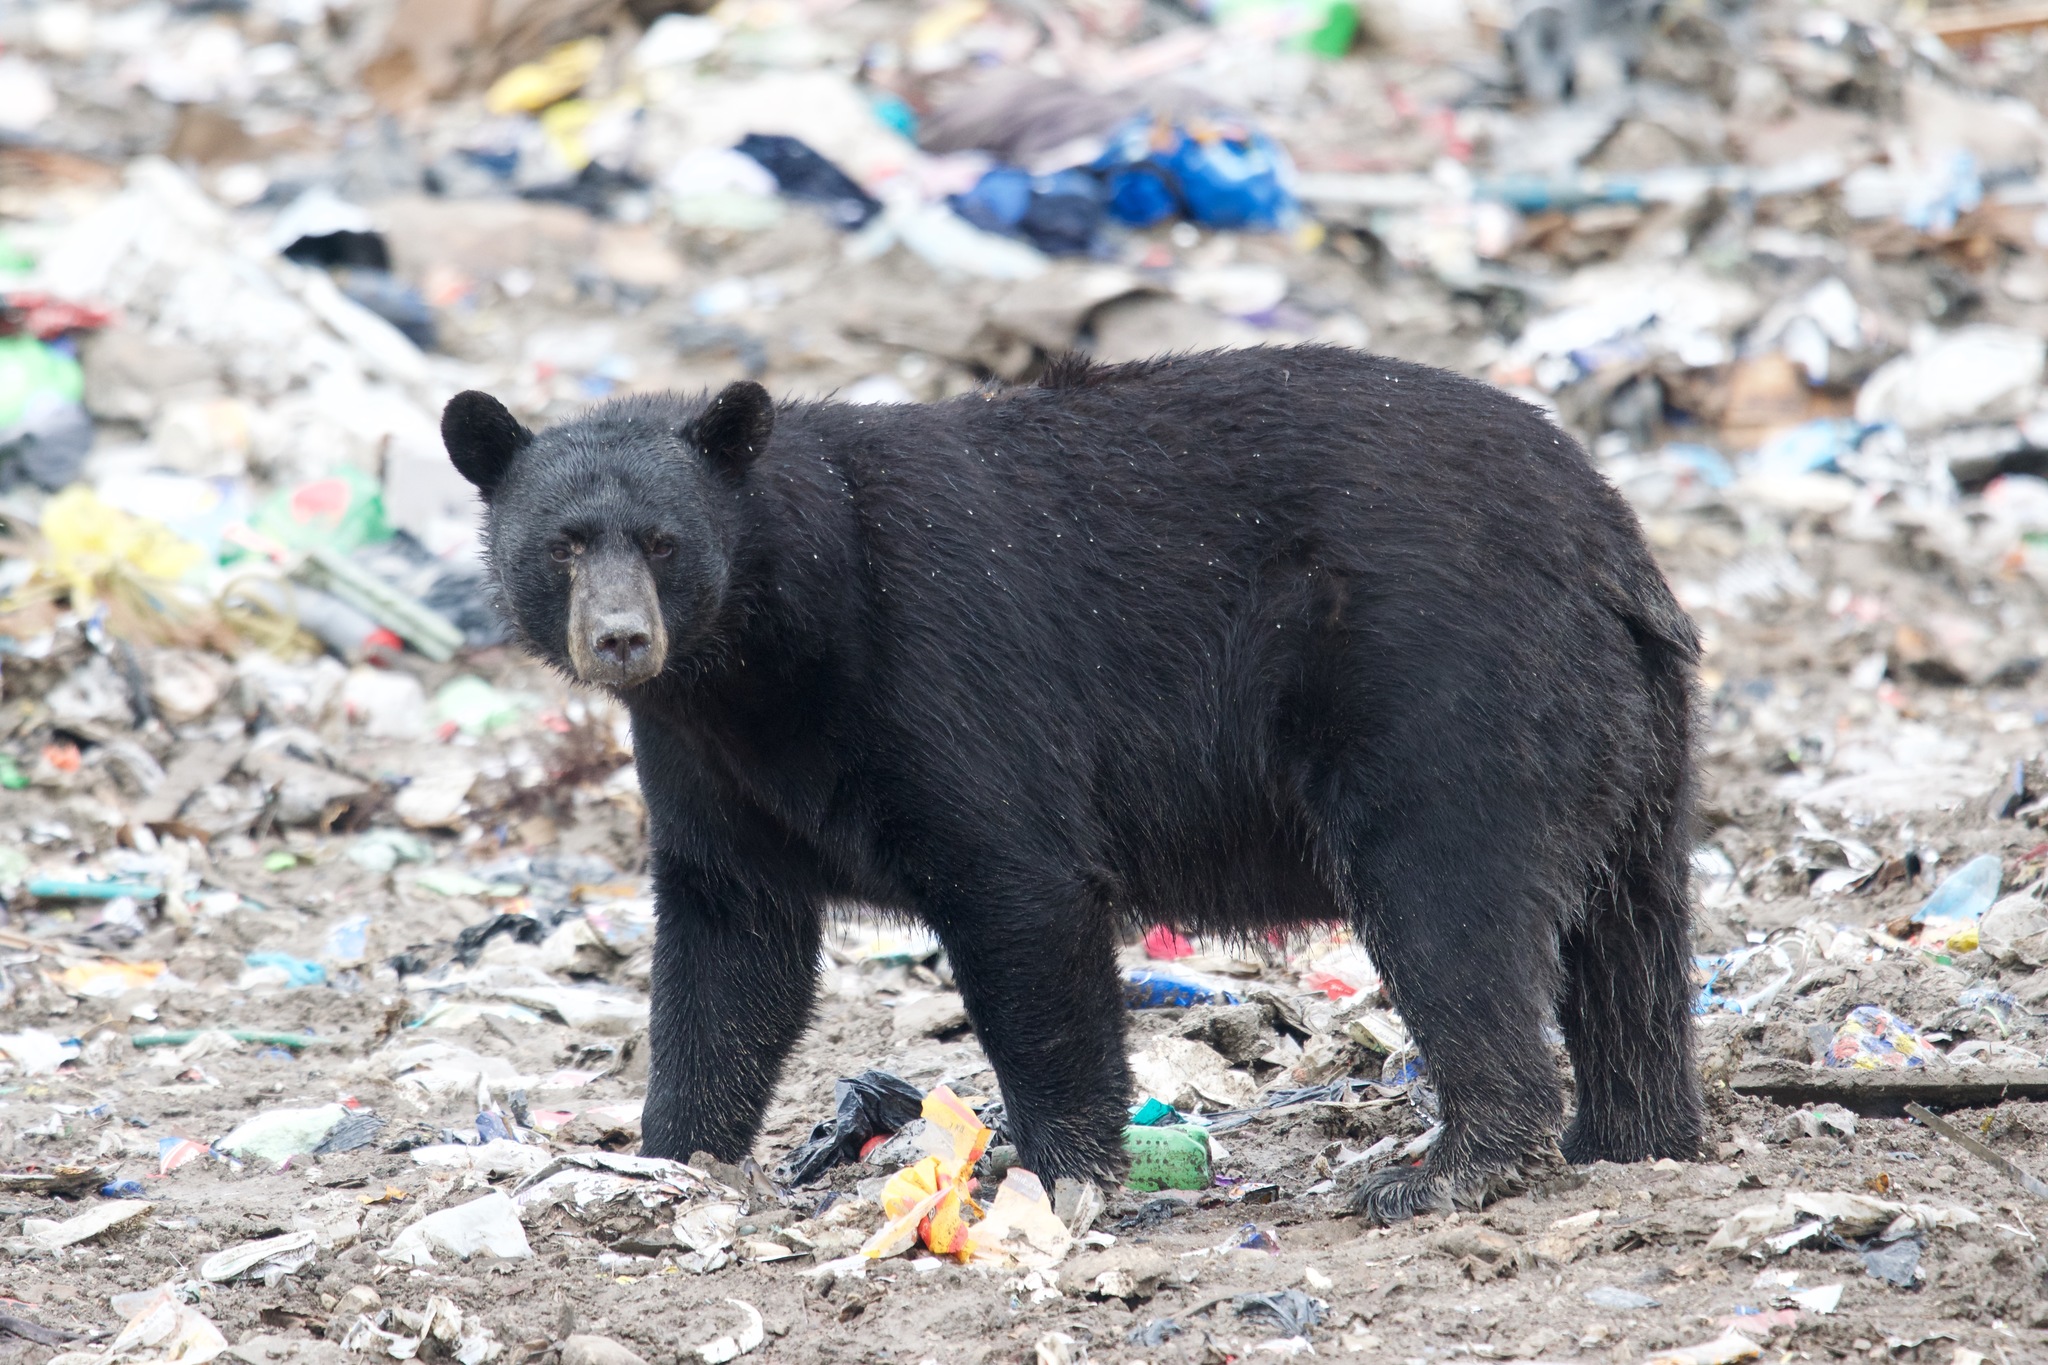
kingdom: Animalia
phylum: Chordata
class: Mammalia
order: Carnivora
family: Ursidae
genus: Ursus
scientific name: Ursus americanus
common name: American black bear
